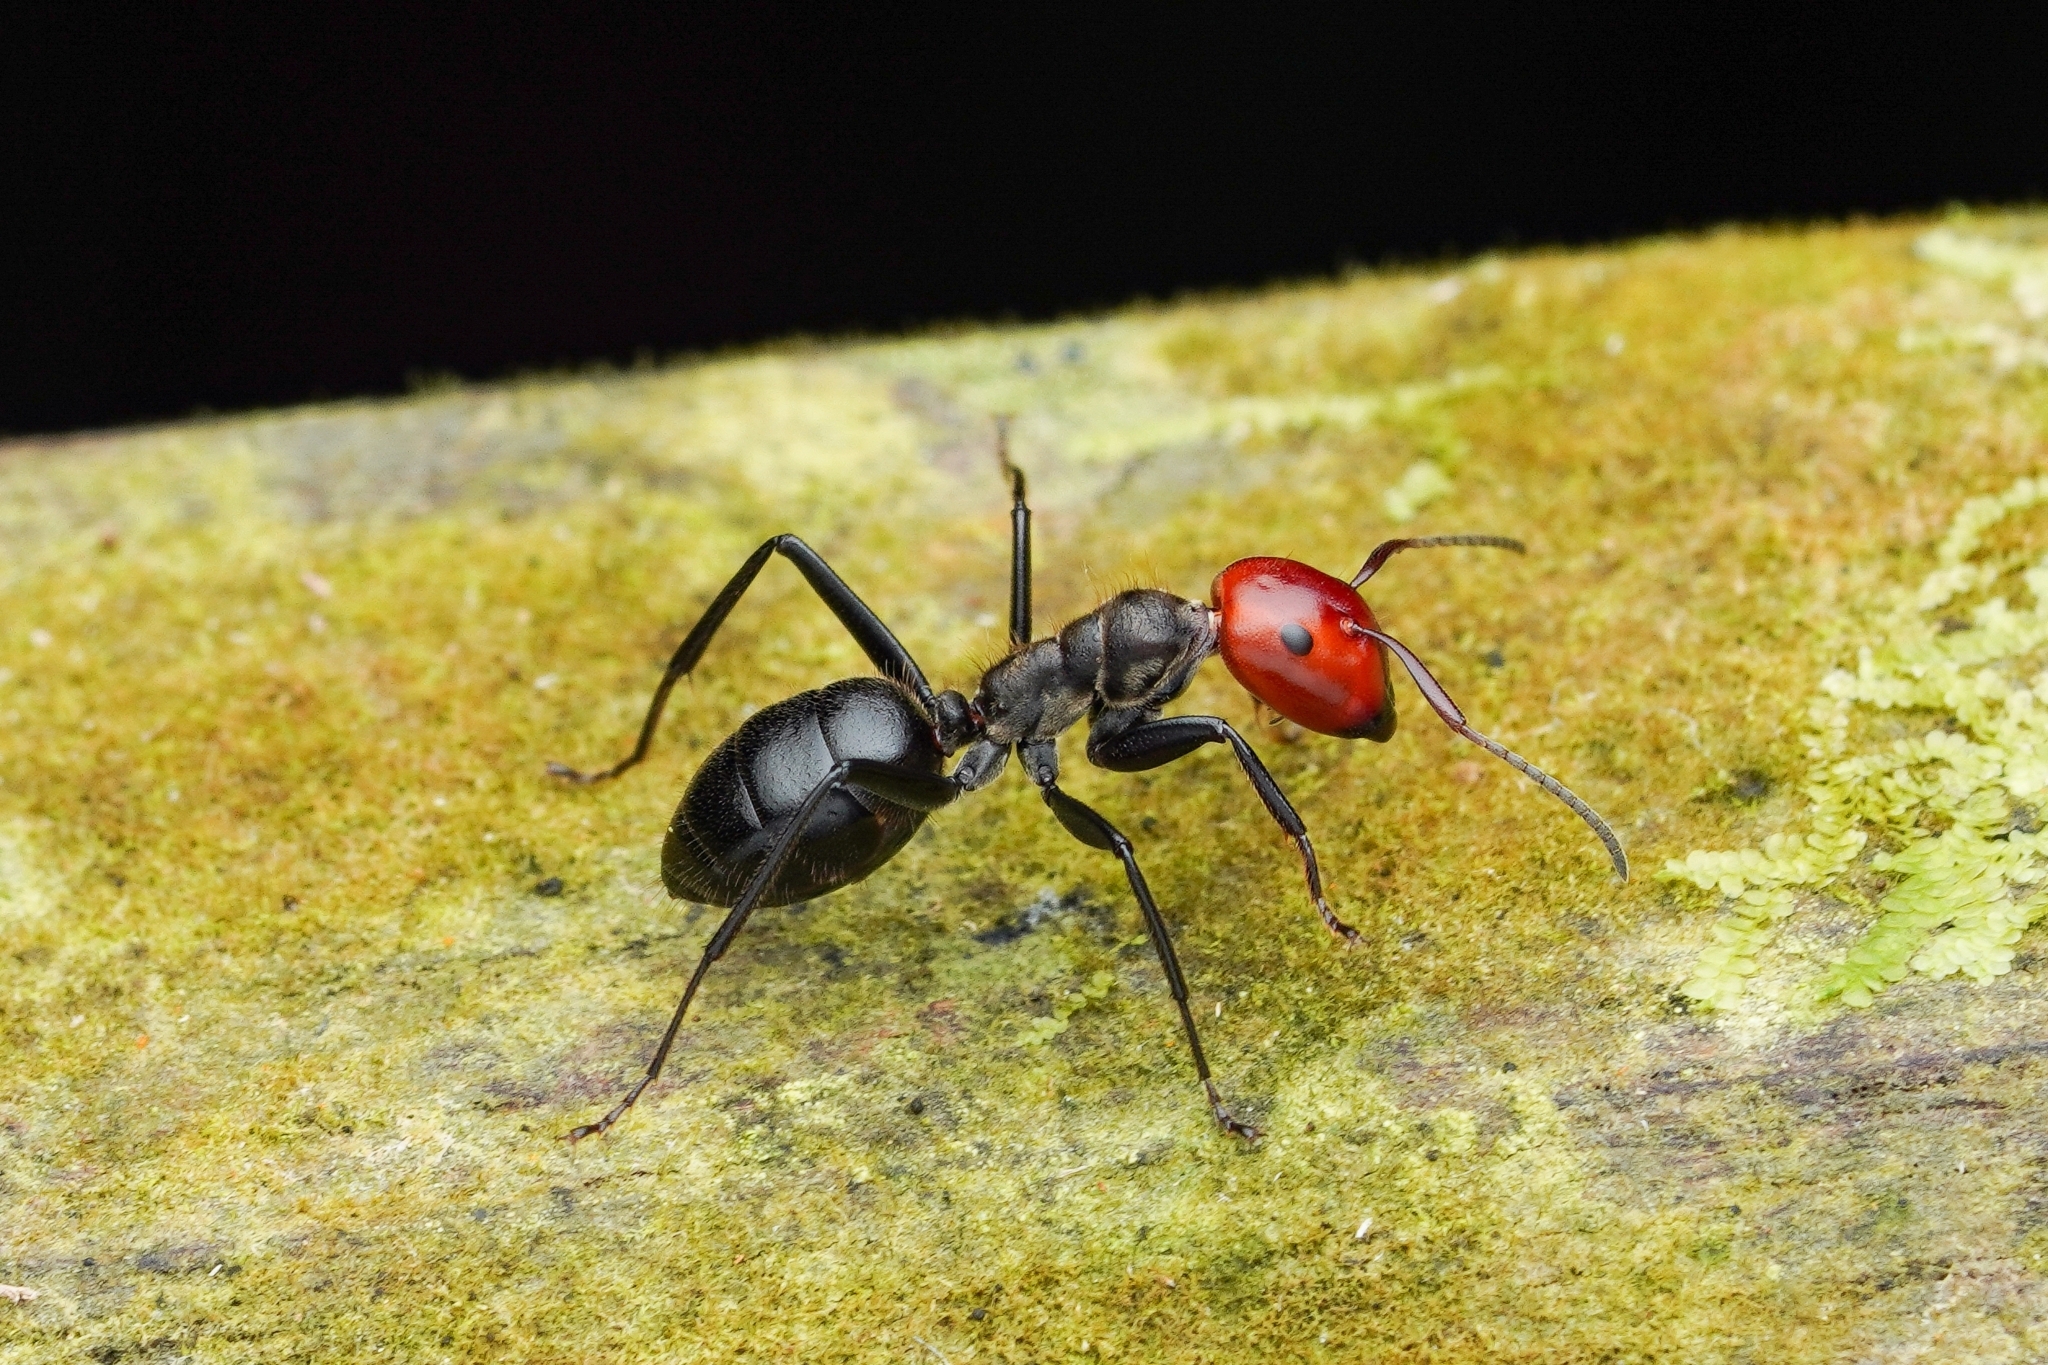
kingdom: Animalia
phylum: Arthropoda
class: Insecta
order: Hymenoptera
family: Formicidae
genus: Colobopsis
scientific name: Colobopsis cylindrica
